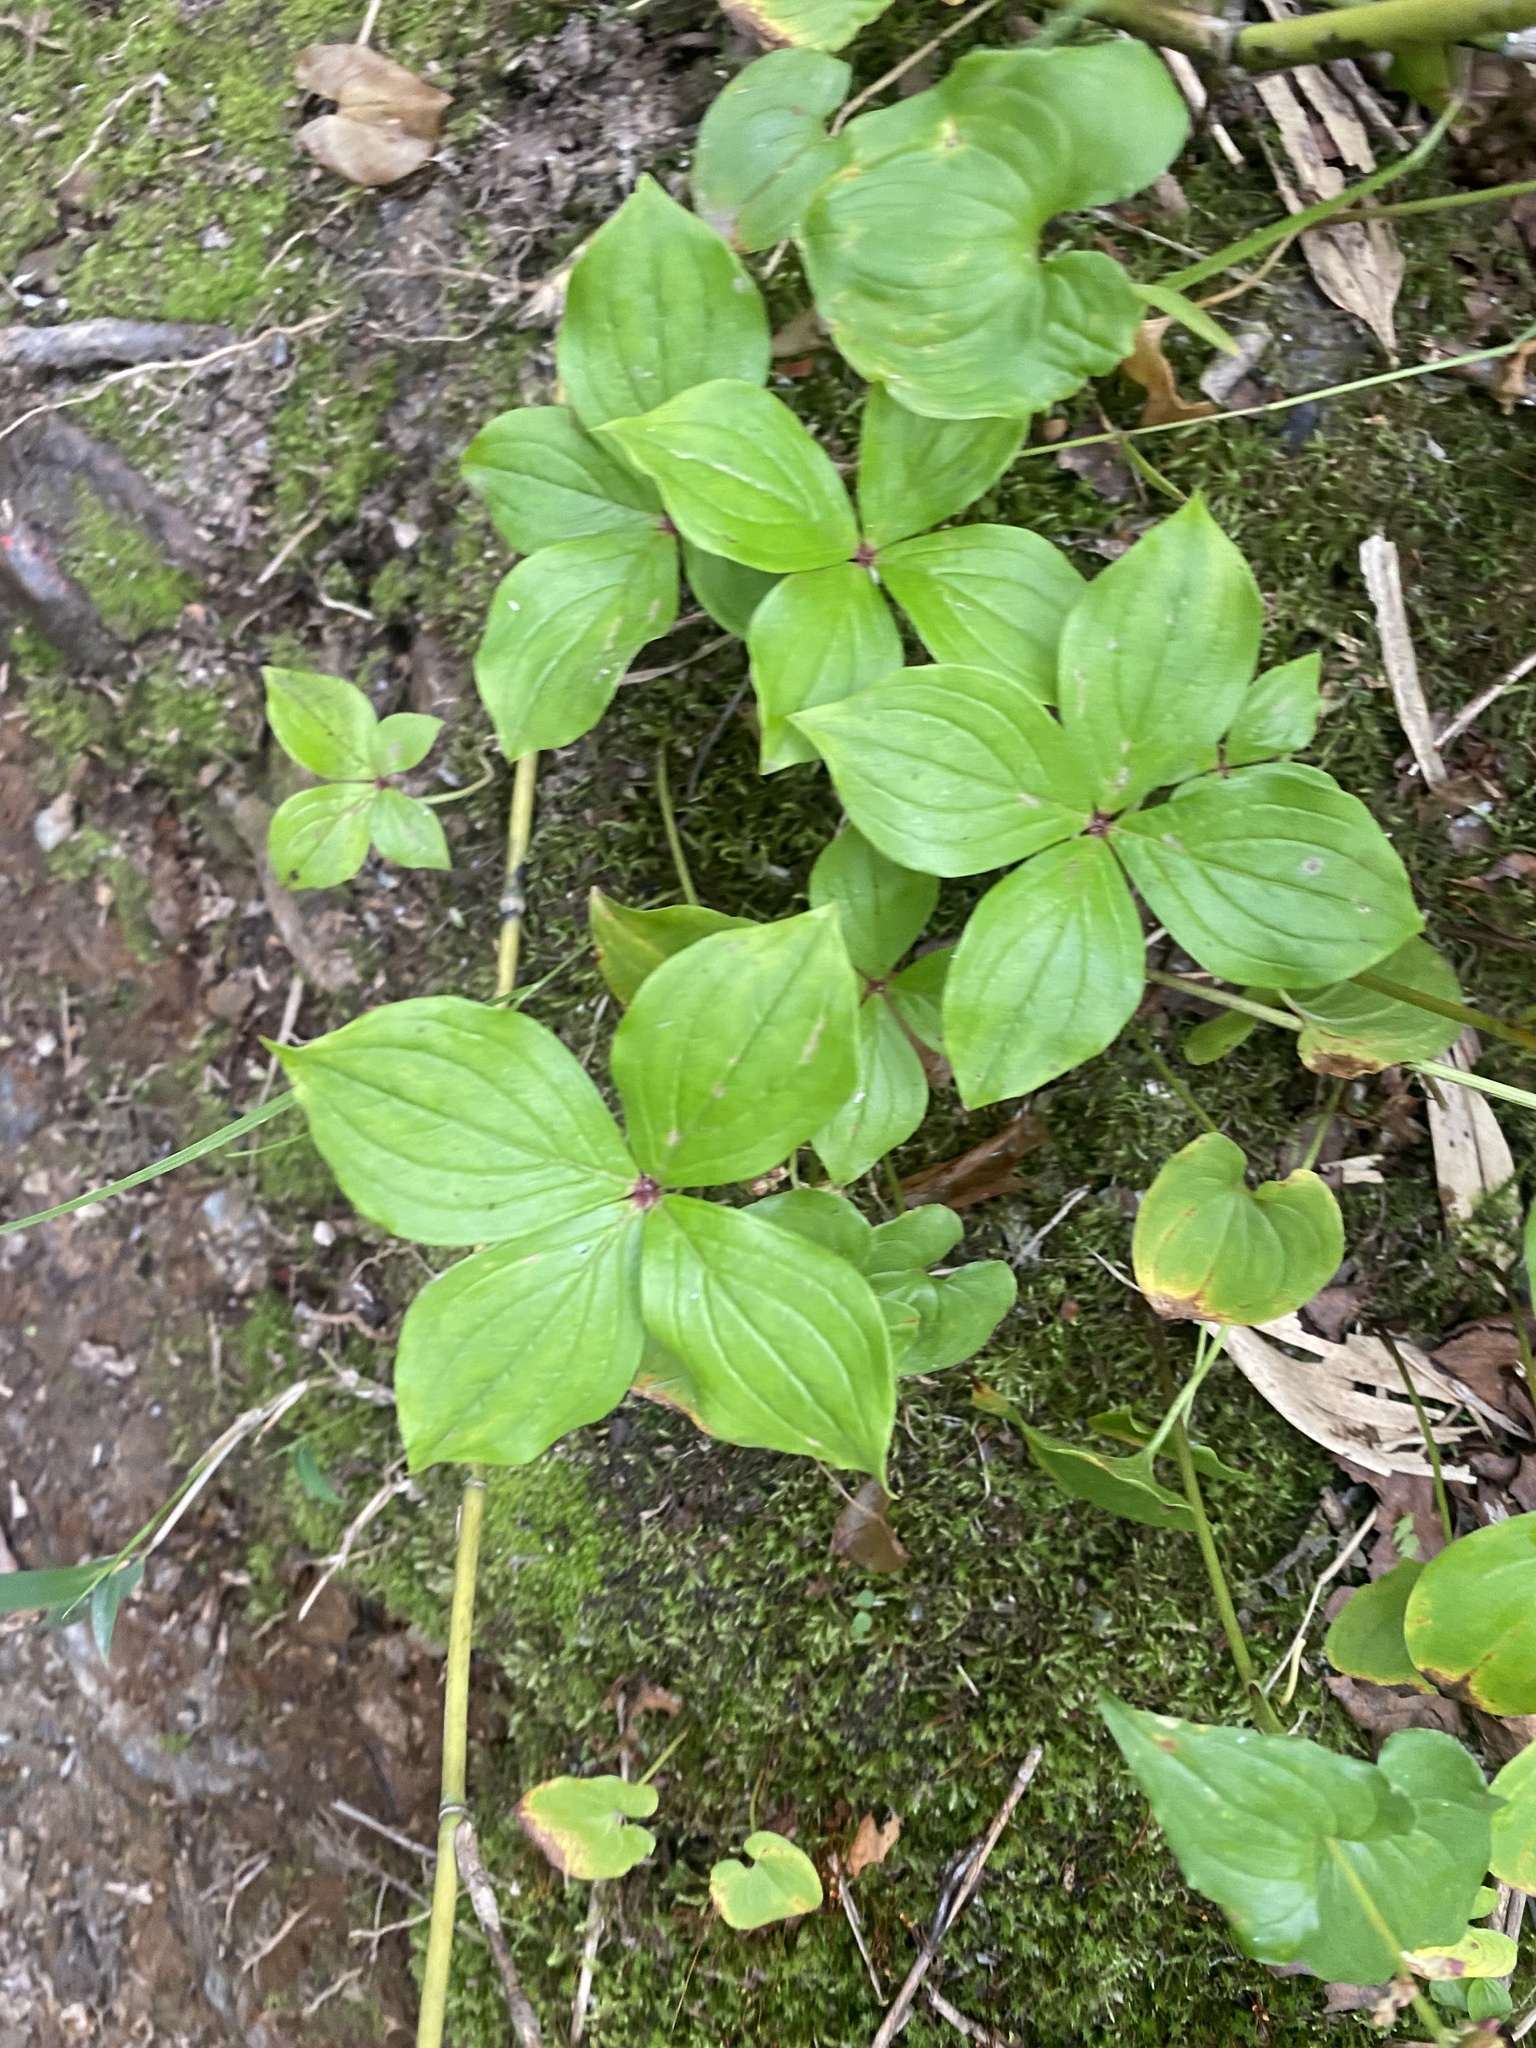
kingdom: Plantae
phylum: Tracheophyta
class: Magnoliopsida
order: Cornales
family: Cornaceae
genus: Cornus
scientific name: Cornus canadensis
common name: Creeping dogwood
